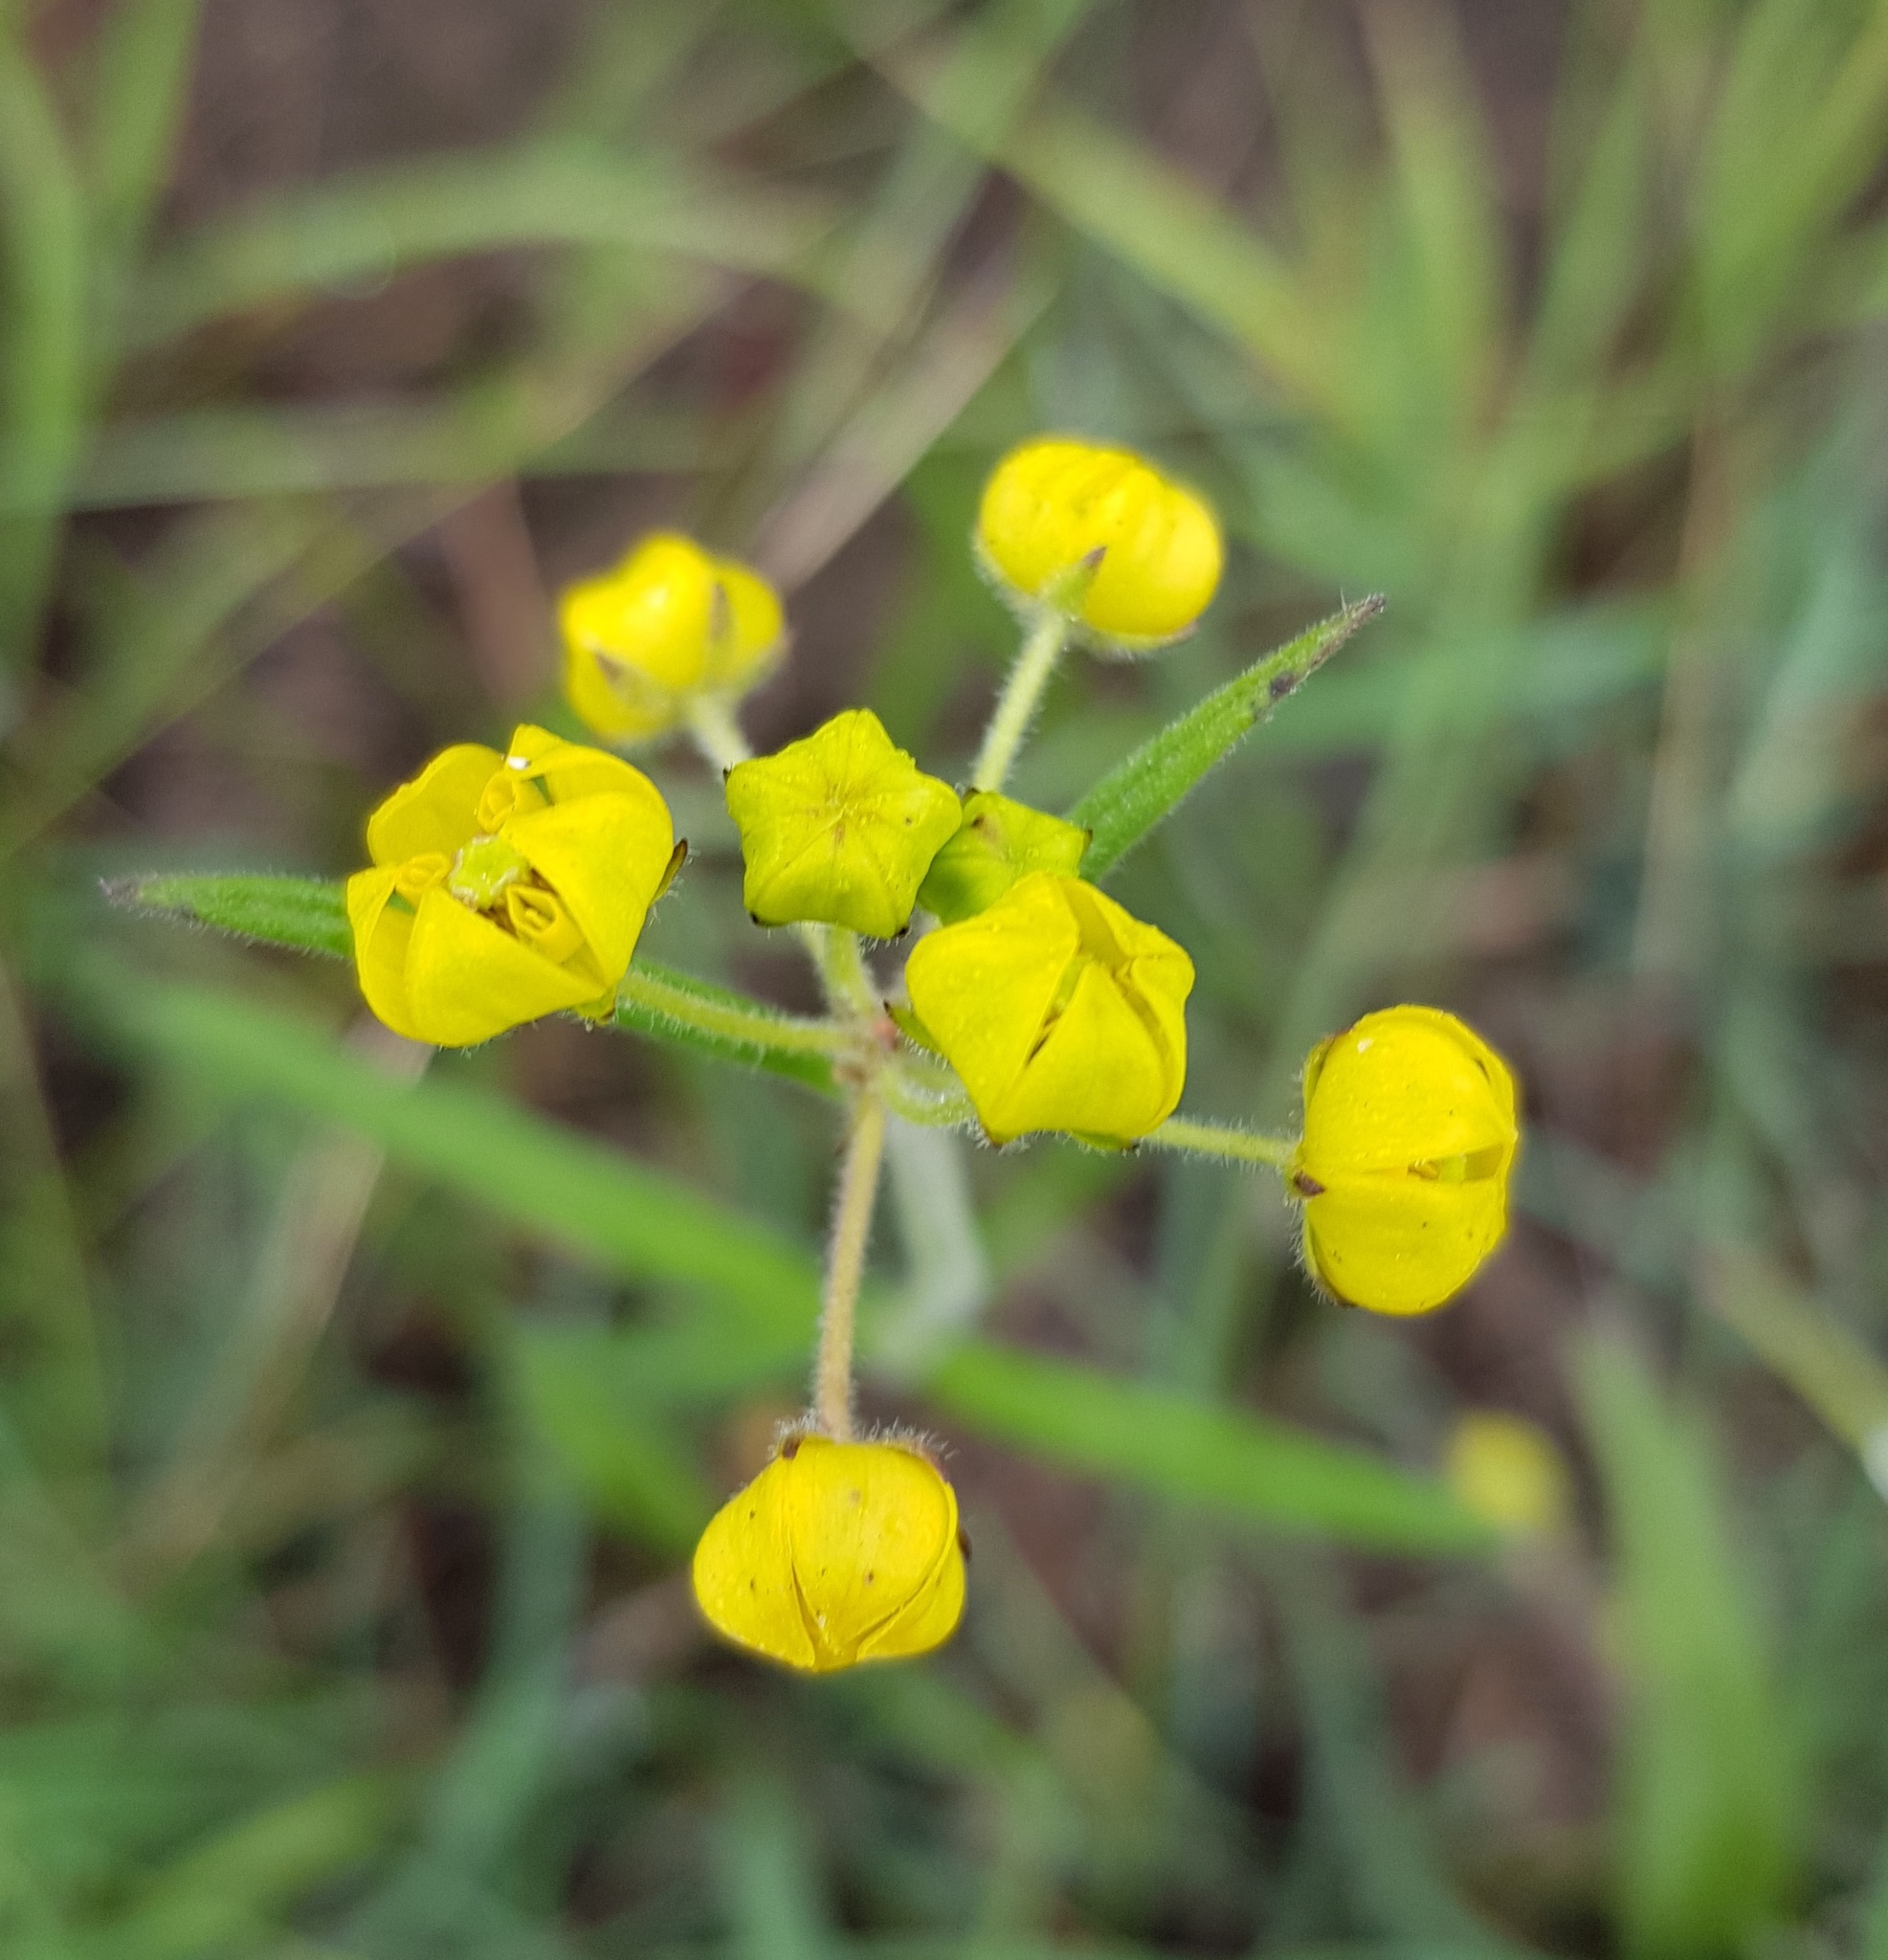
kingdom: Plantae
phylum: Tracheophyta
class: Magnoliopsida
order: Gentianales
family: Apocynaceae
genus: Aspidonepsis
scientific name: Aspidonepsis diploglossa
